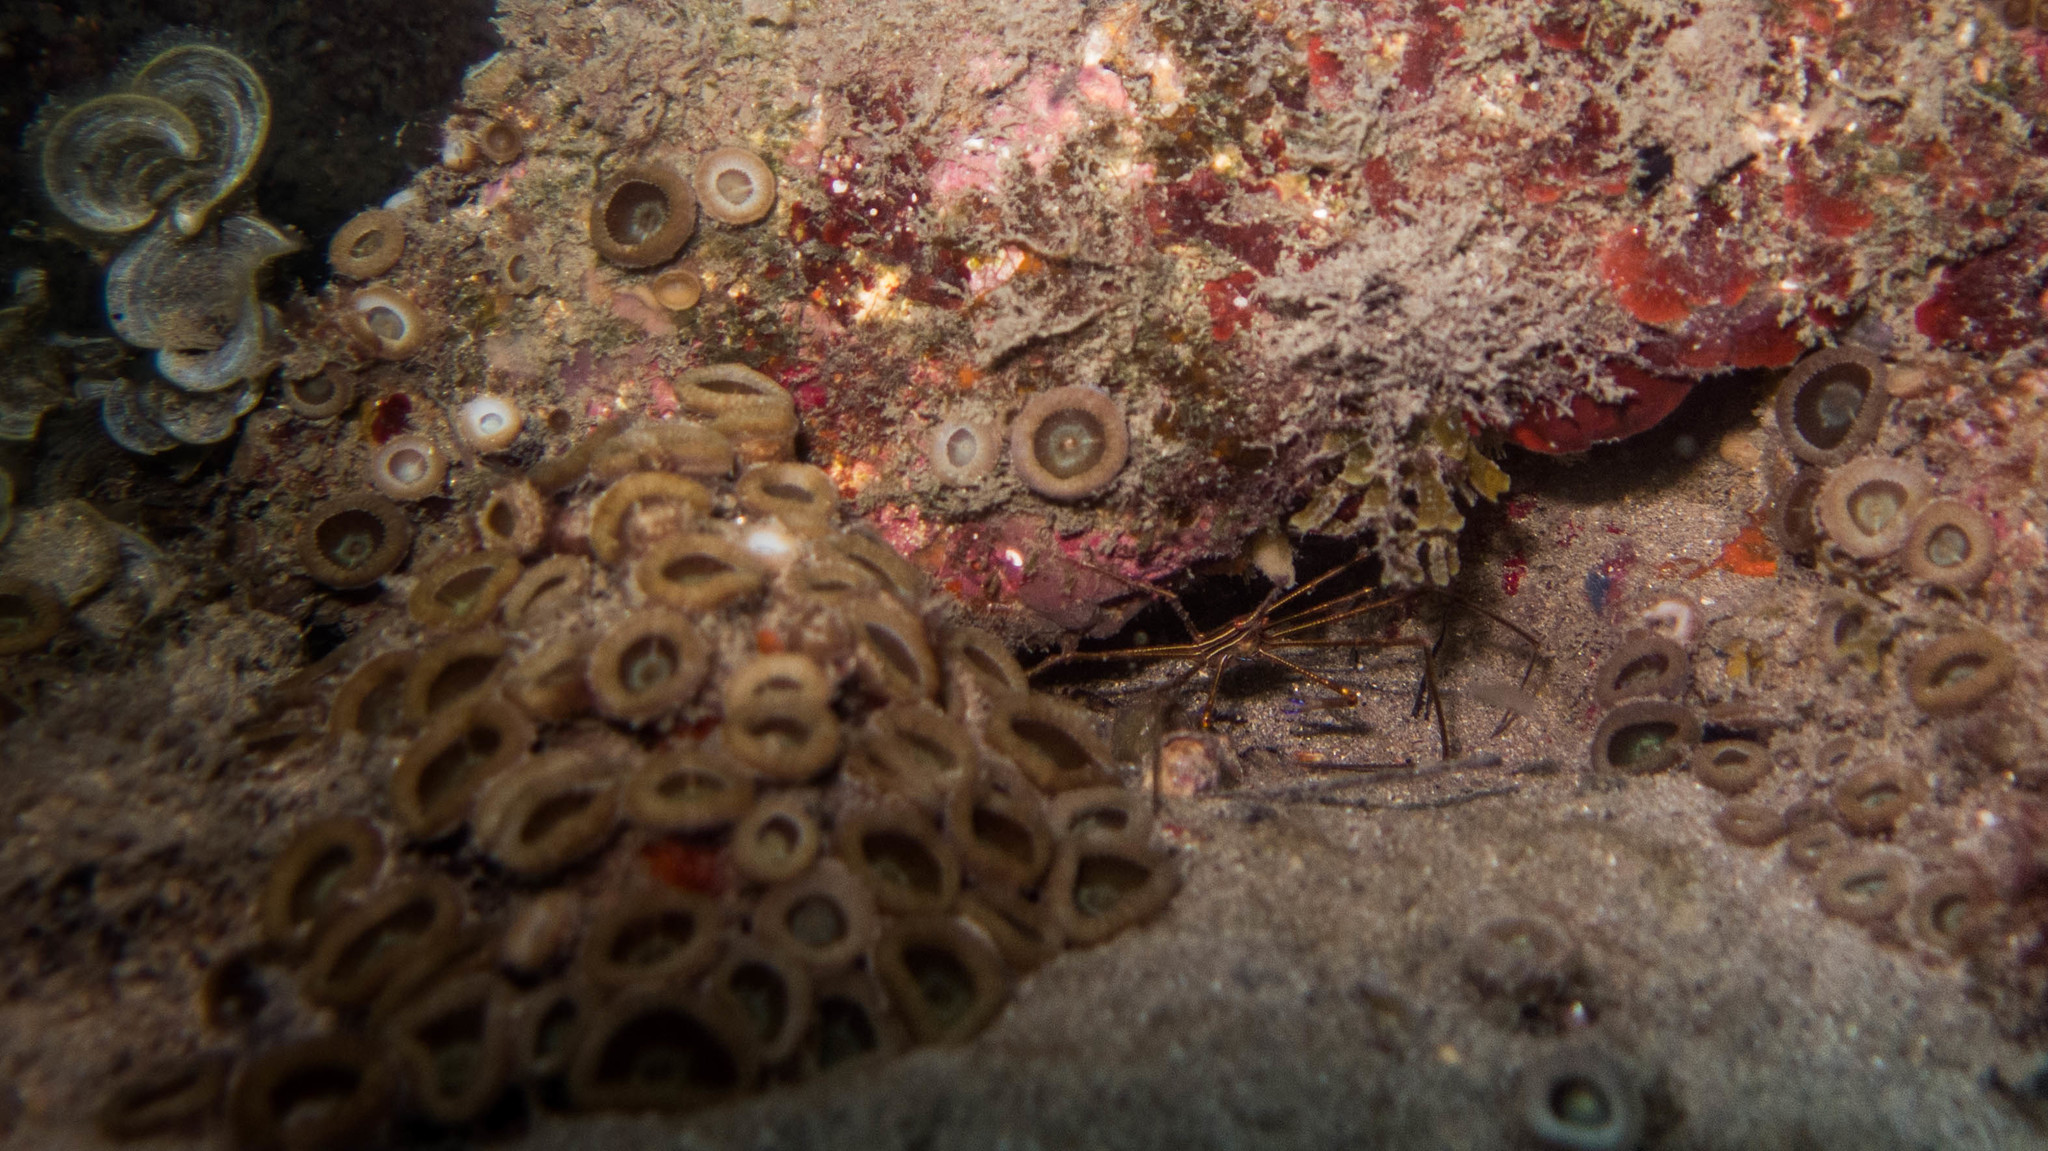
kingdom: Animalia
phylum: Arthropoda
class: Malacostraca
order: Decapoda
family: Inachoididae
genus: Stenorhynchus
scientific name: Stenorhynchus seticornis
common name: Arrow crab
